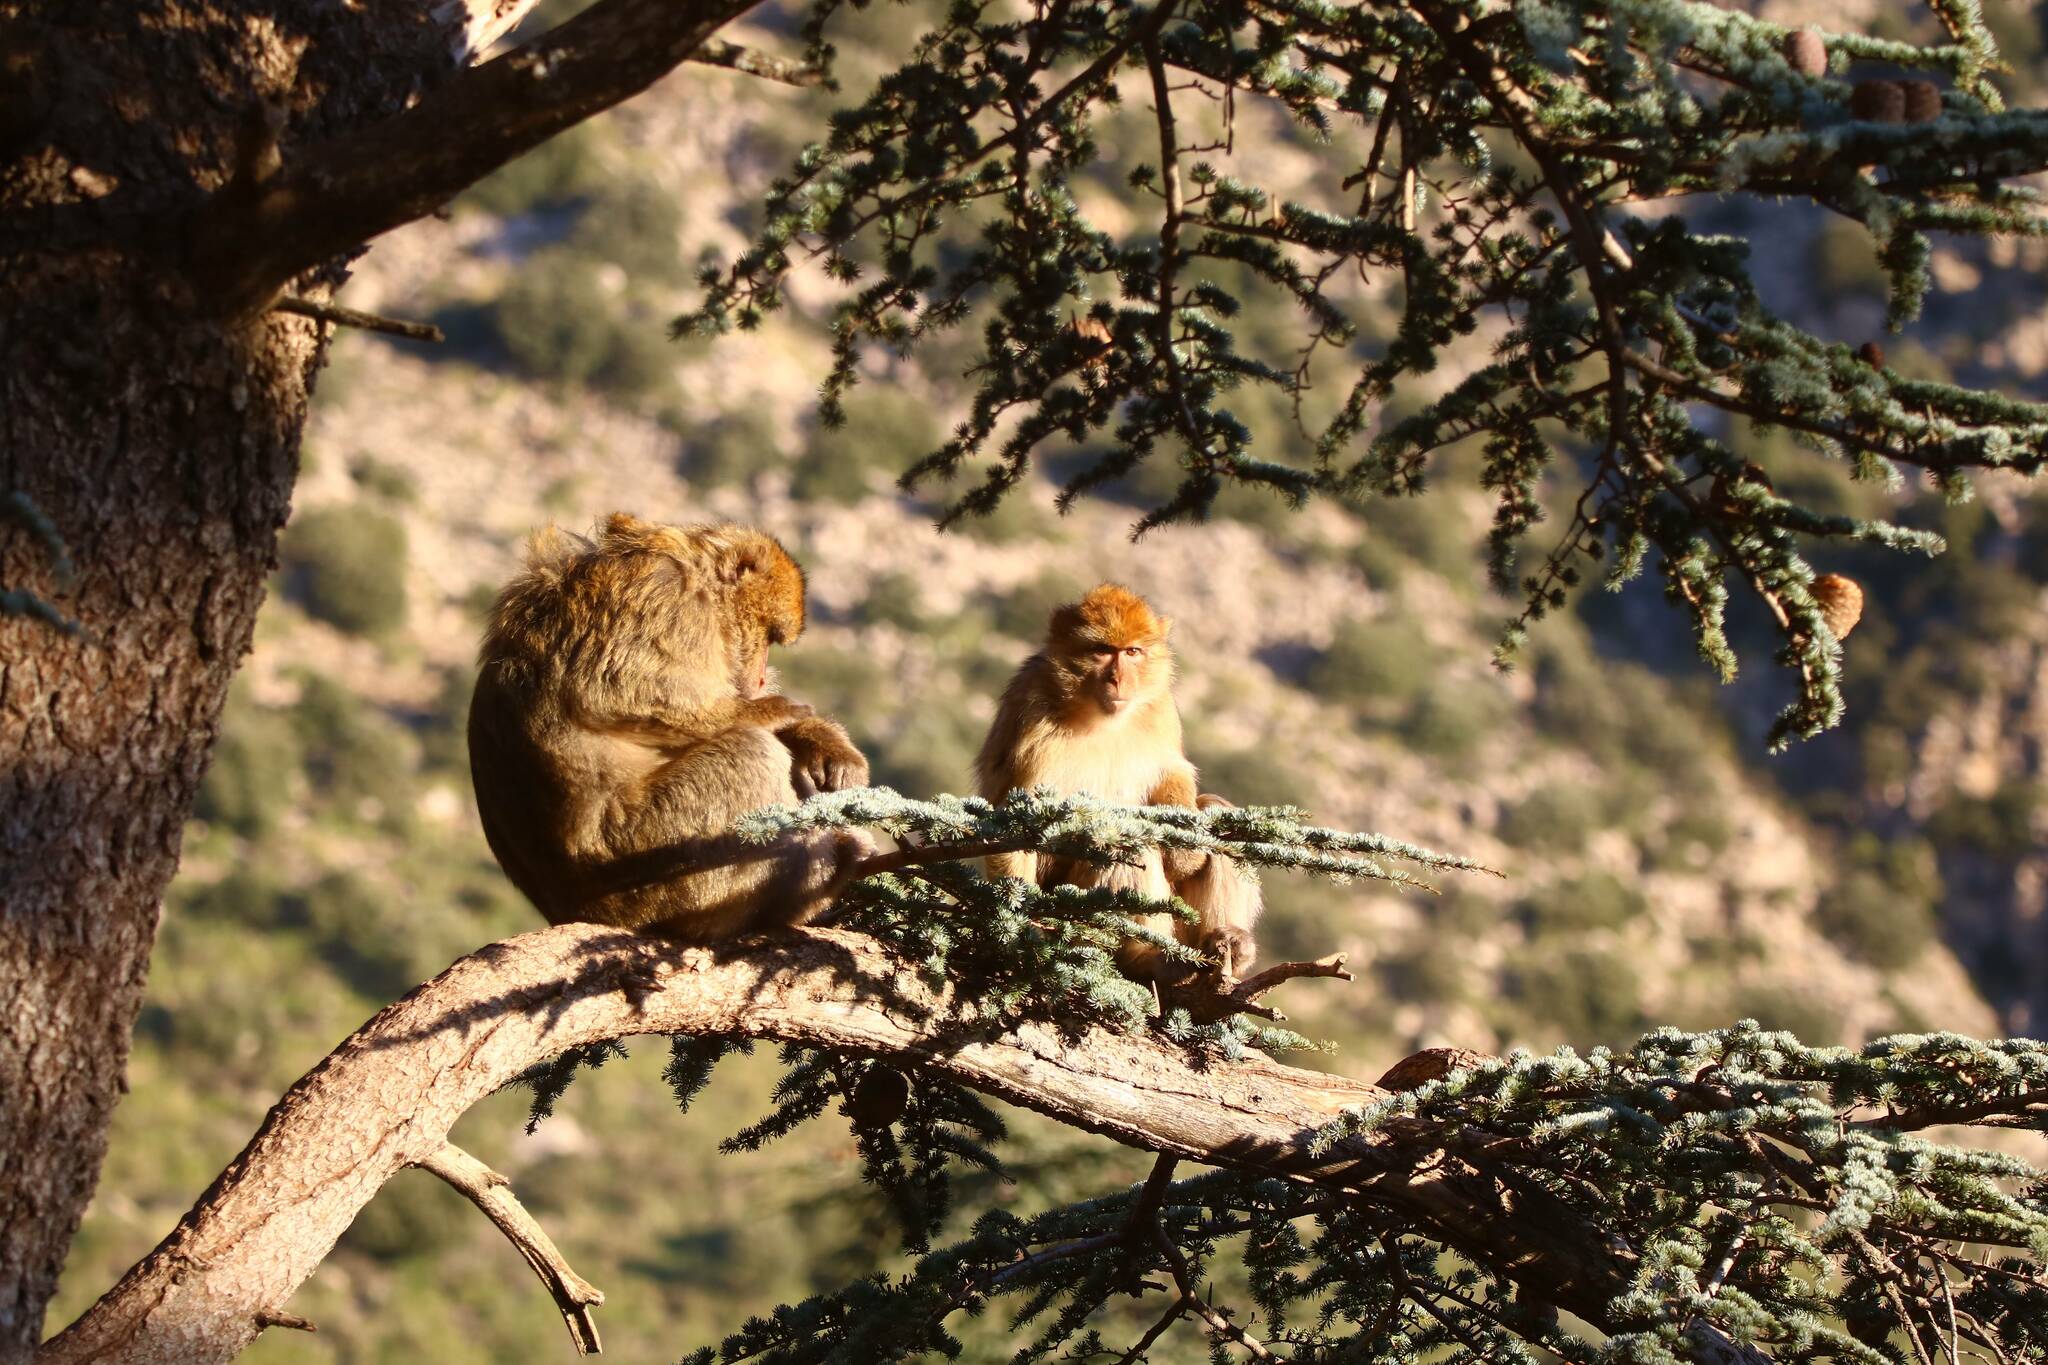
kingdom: Animalia
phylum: Chordata
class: Mammalia
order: Primates
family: Cercopithecidae
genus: Macaca
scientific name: Macaca sylvanus
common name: Barbary macaque
